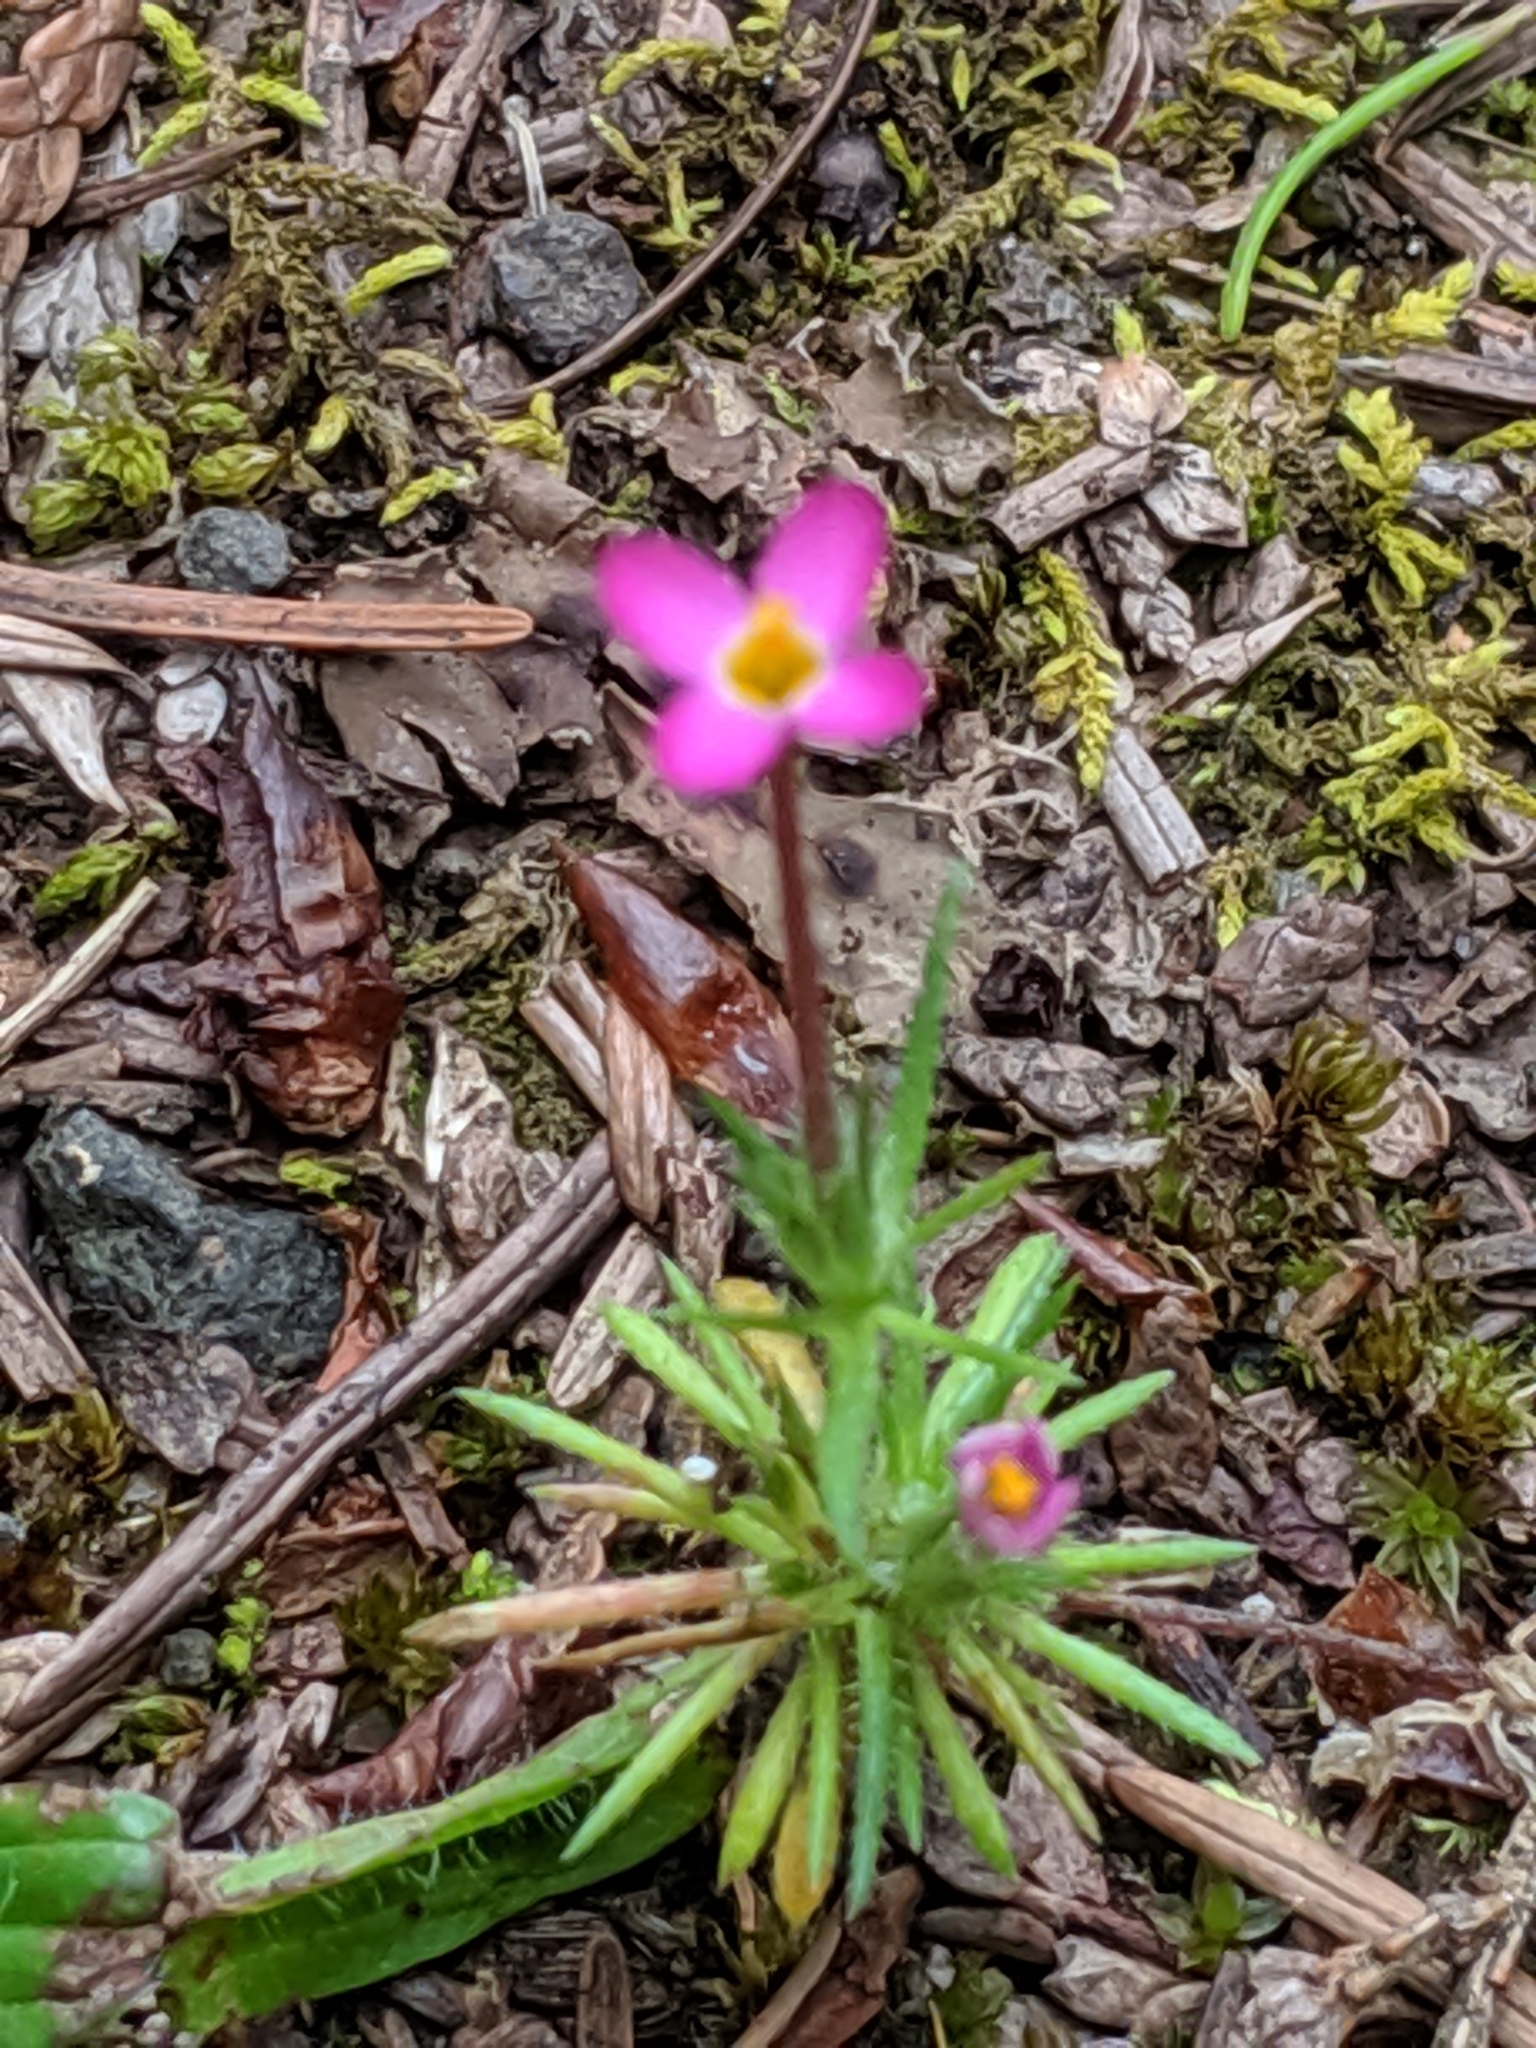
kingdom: Plantae
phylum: Tracheophyta
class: Magnoliopsida
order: Ericales
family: Polemoniaceae
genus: Leptosiphon
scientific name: Leptosiphon bicolor
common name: True babystars
